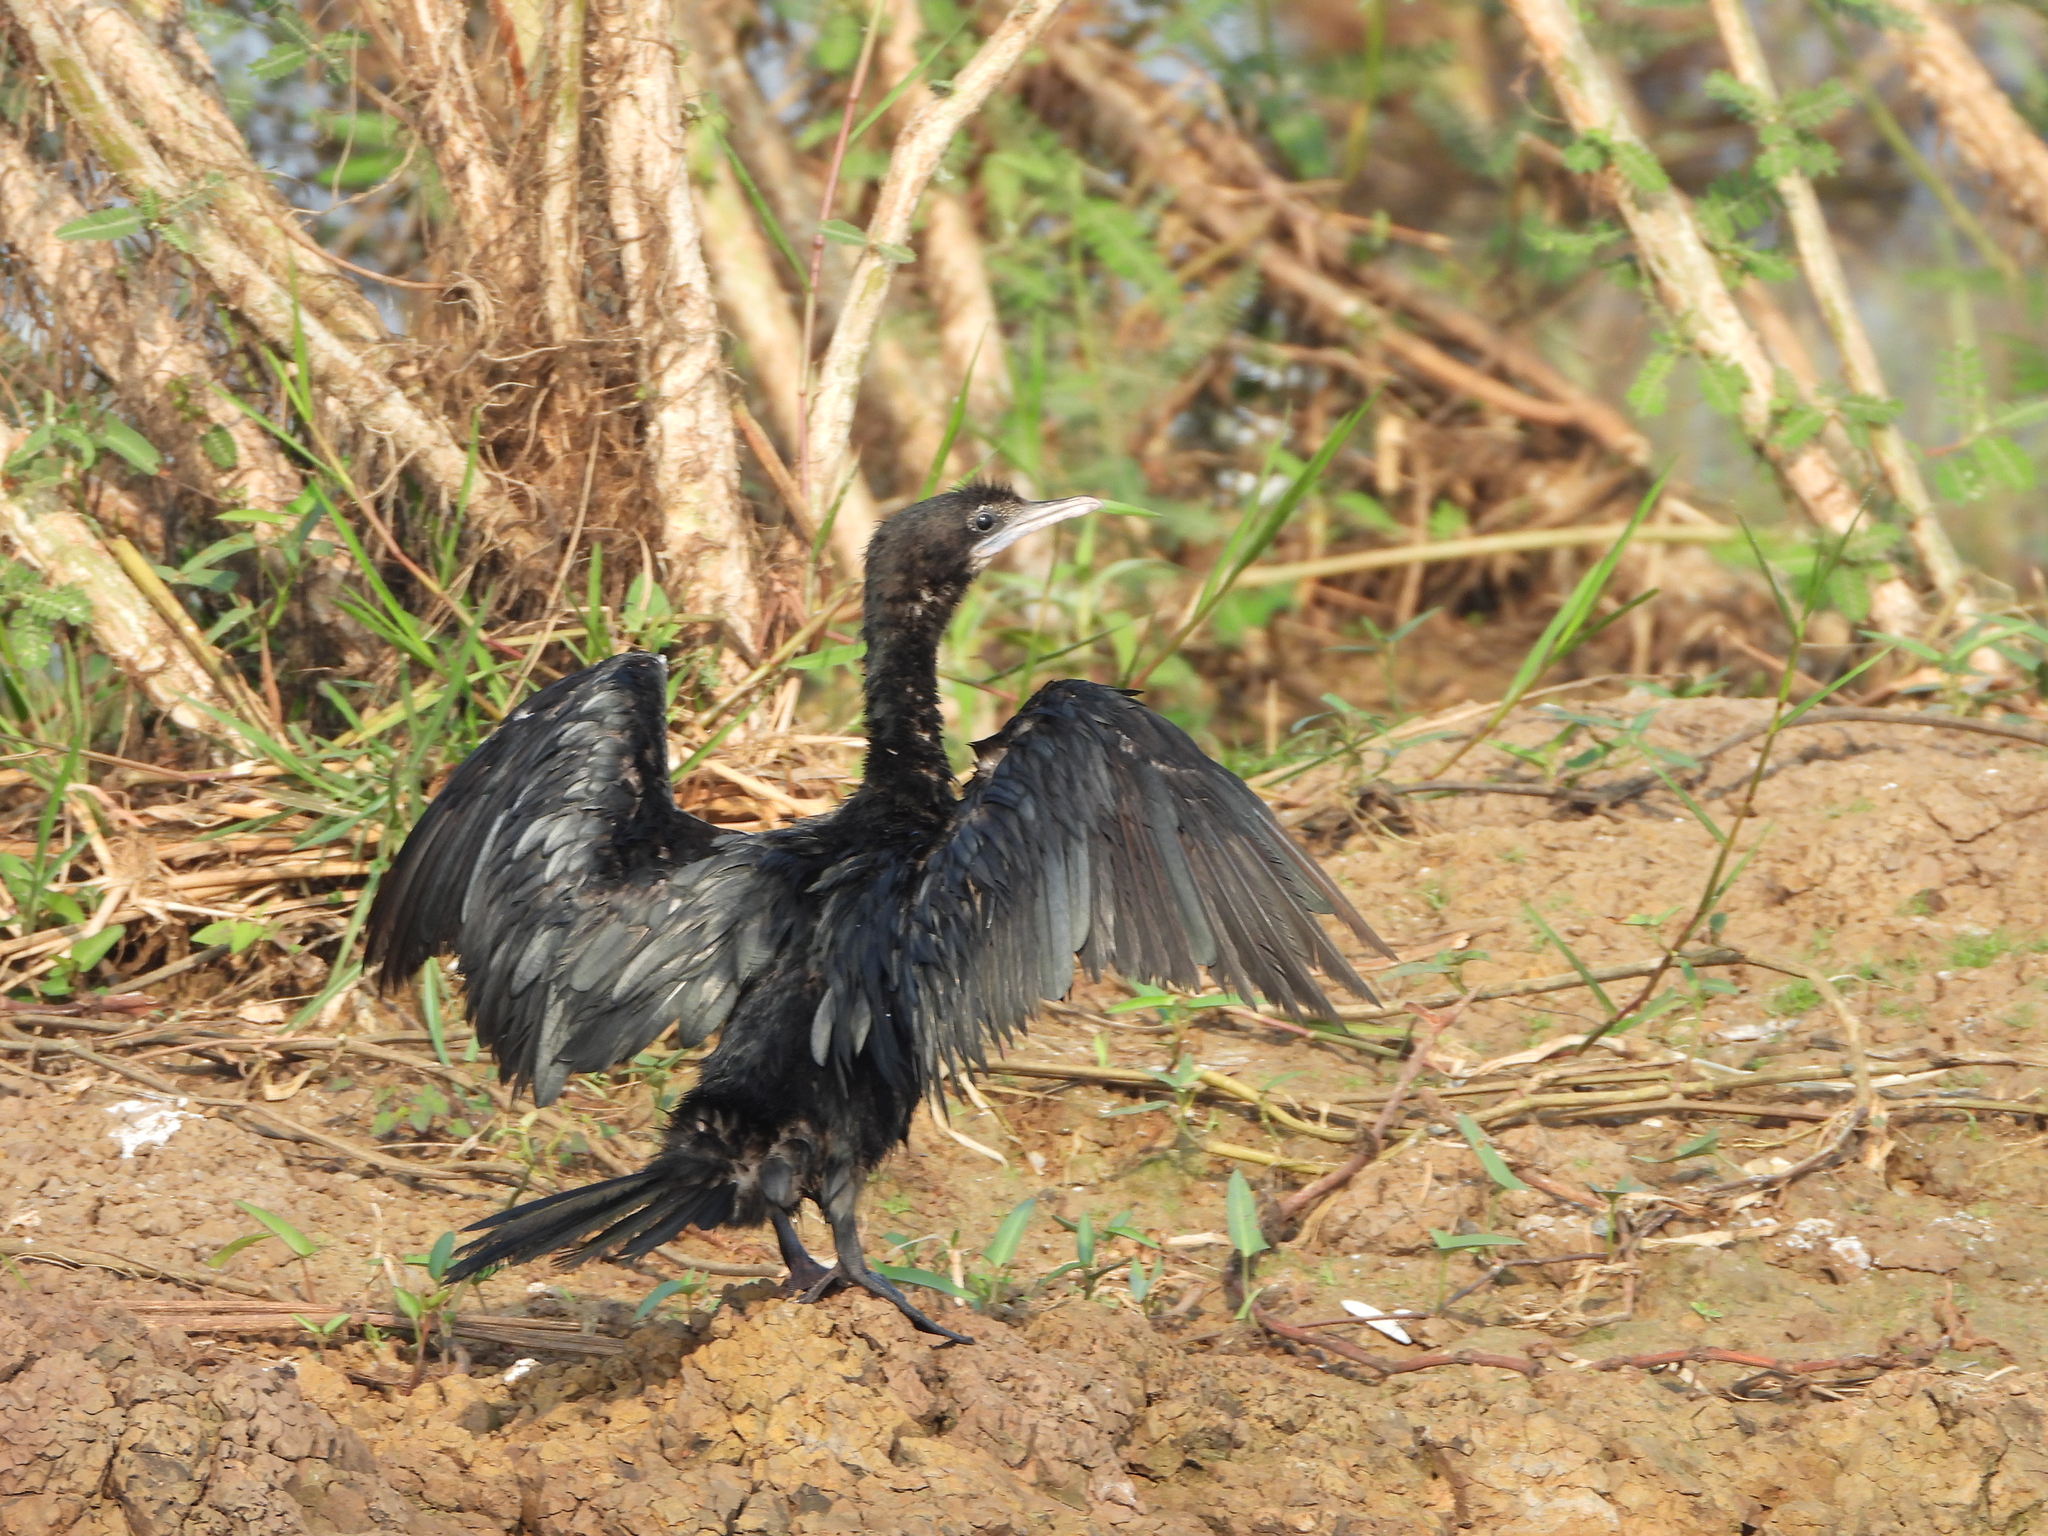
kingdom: Animalia
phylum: Chordata
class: Aves
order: Suliformes
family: Phalacrocoracidae
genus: Microcarbo
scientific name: Microcarbo niger
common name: Little cormorant
